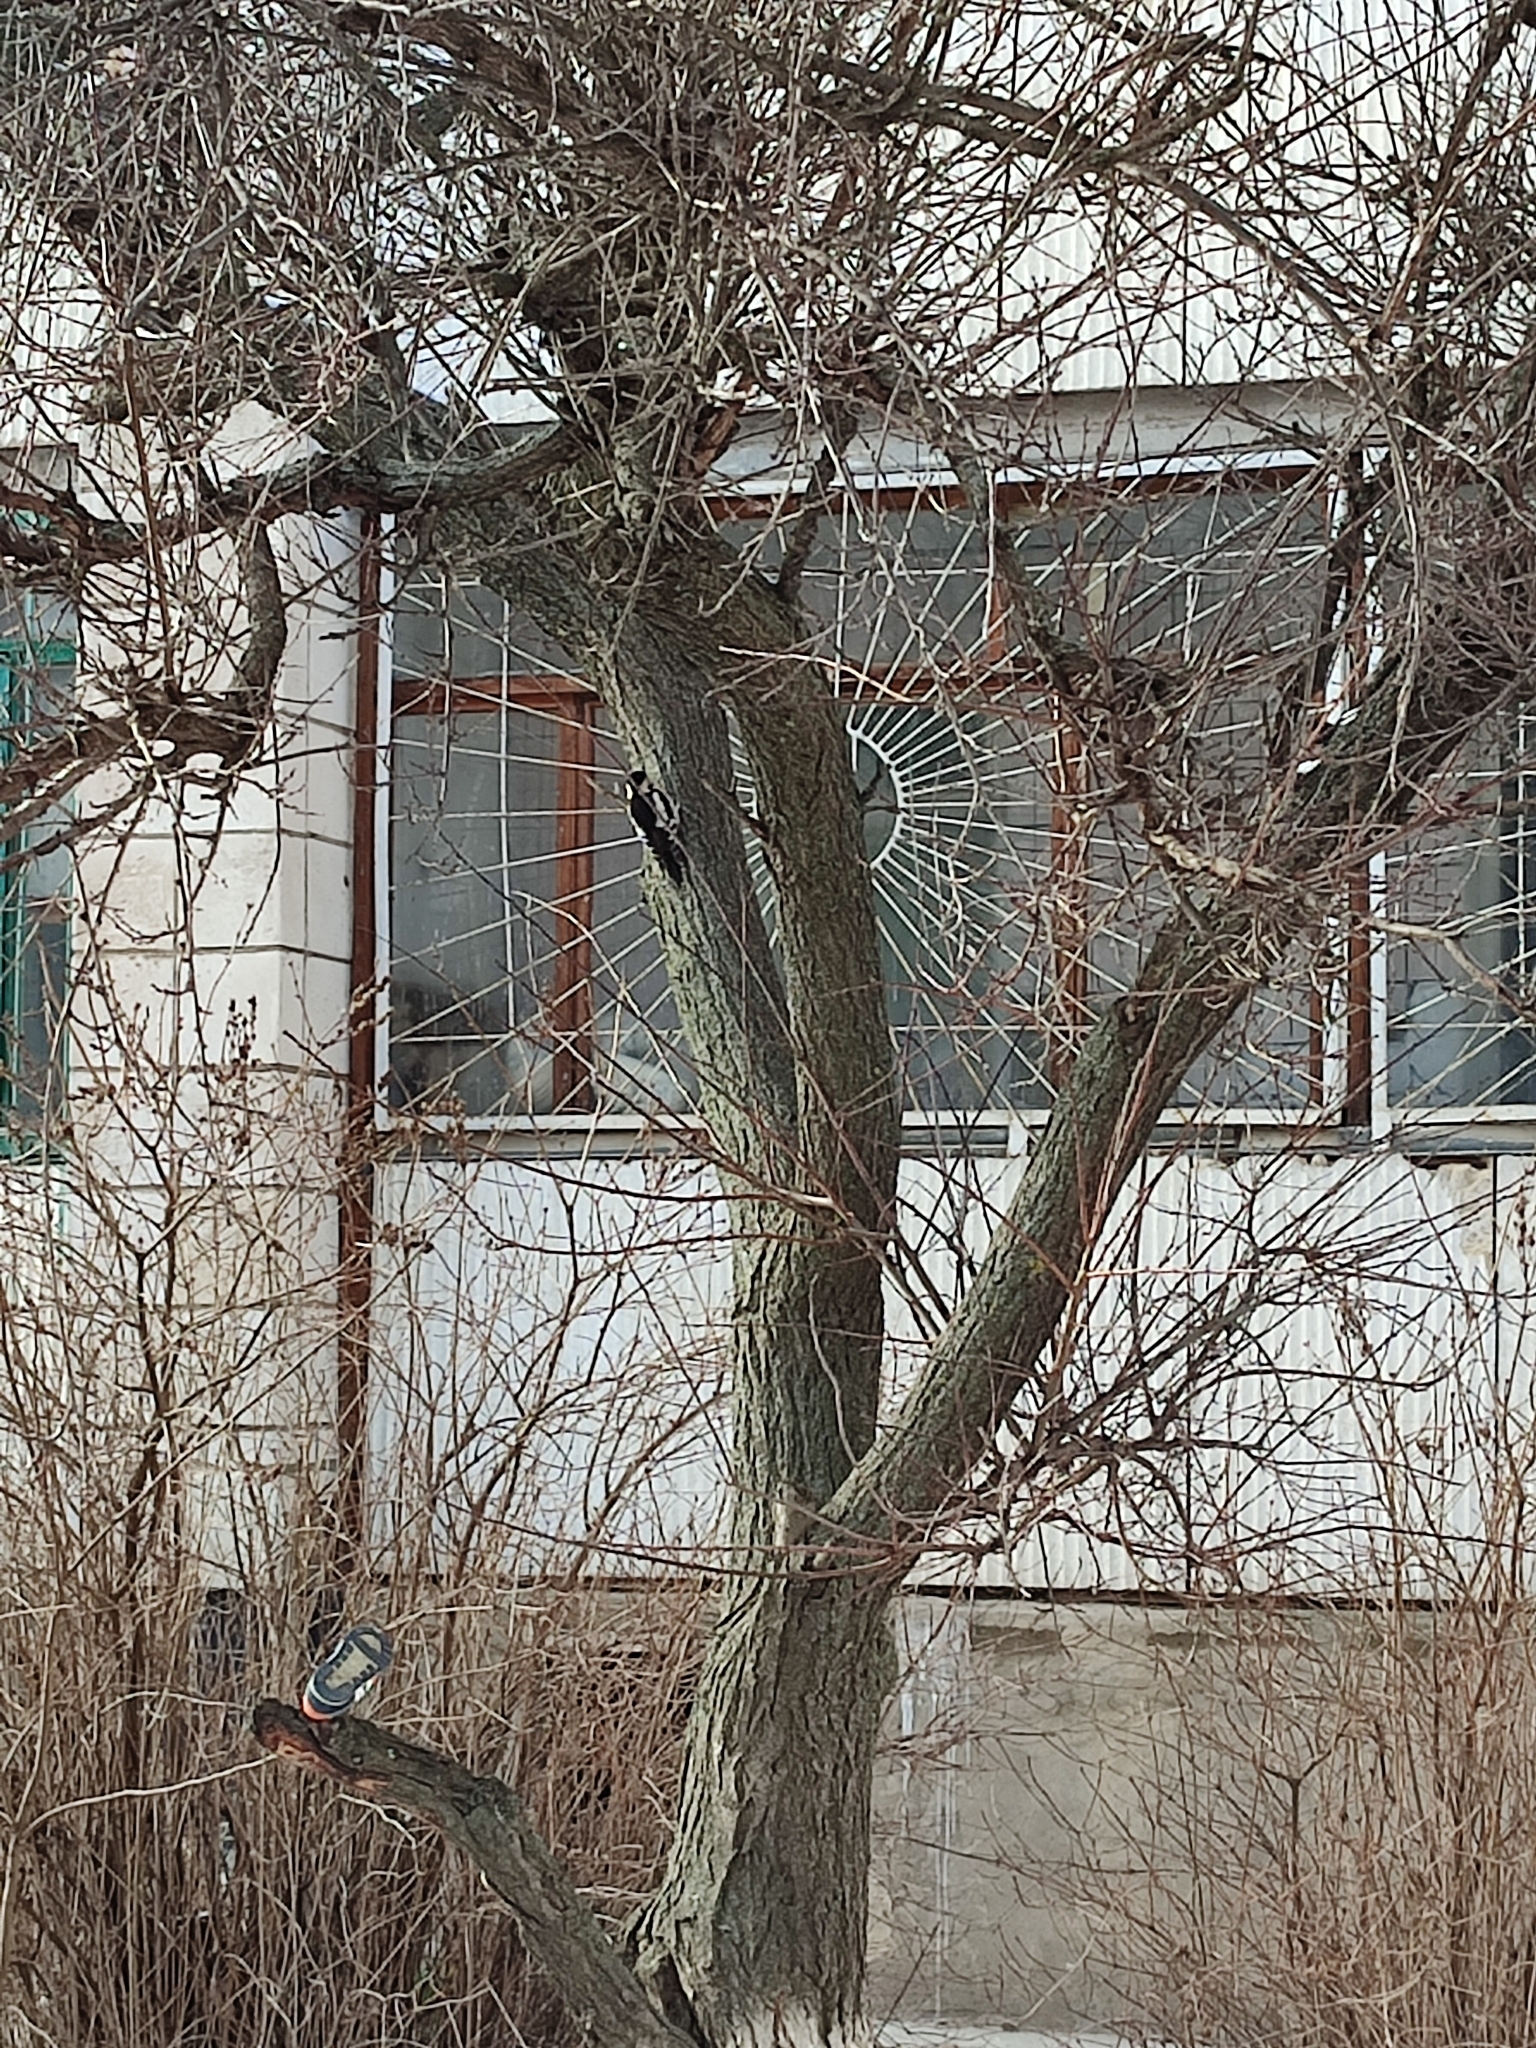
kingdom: Animalia
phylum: Chordata
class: Aves
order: Piciformes
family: Picidae
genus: Dendrocopos
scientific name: Dendrocopos syriacus
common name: Syrian woodpecker
